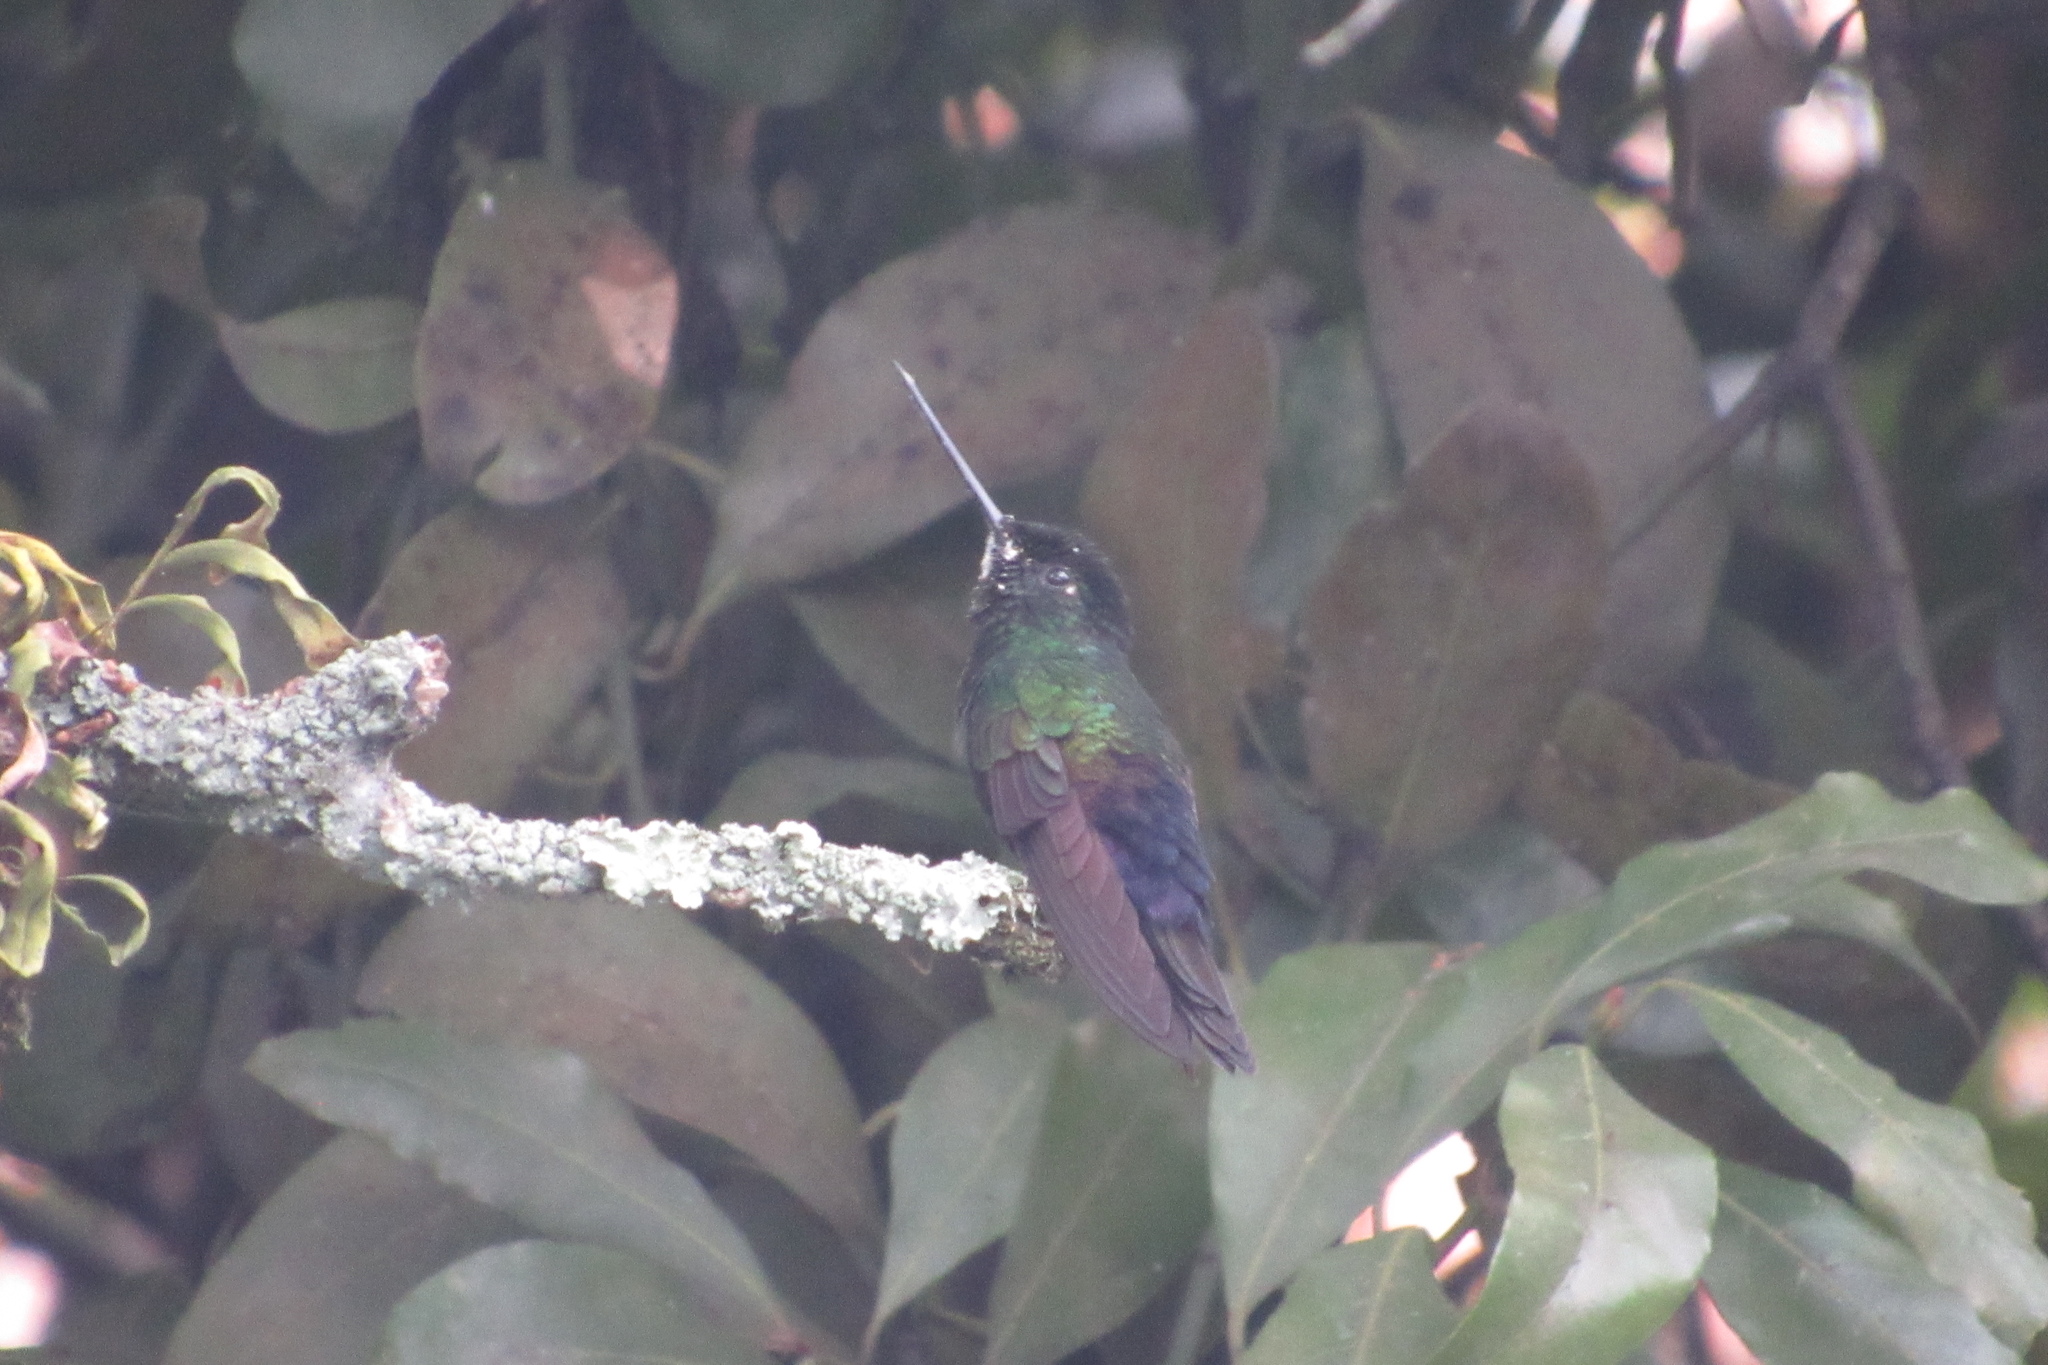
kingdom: Animalia
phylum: Chordata
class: Aves
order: Apodiformes
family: Trochilidae
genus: Coeligena
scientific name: Coeligena helianthea
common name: Blue-throated starfrontlet
